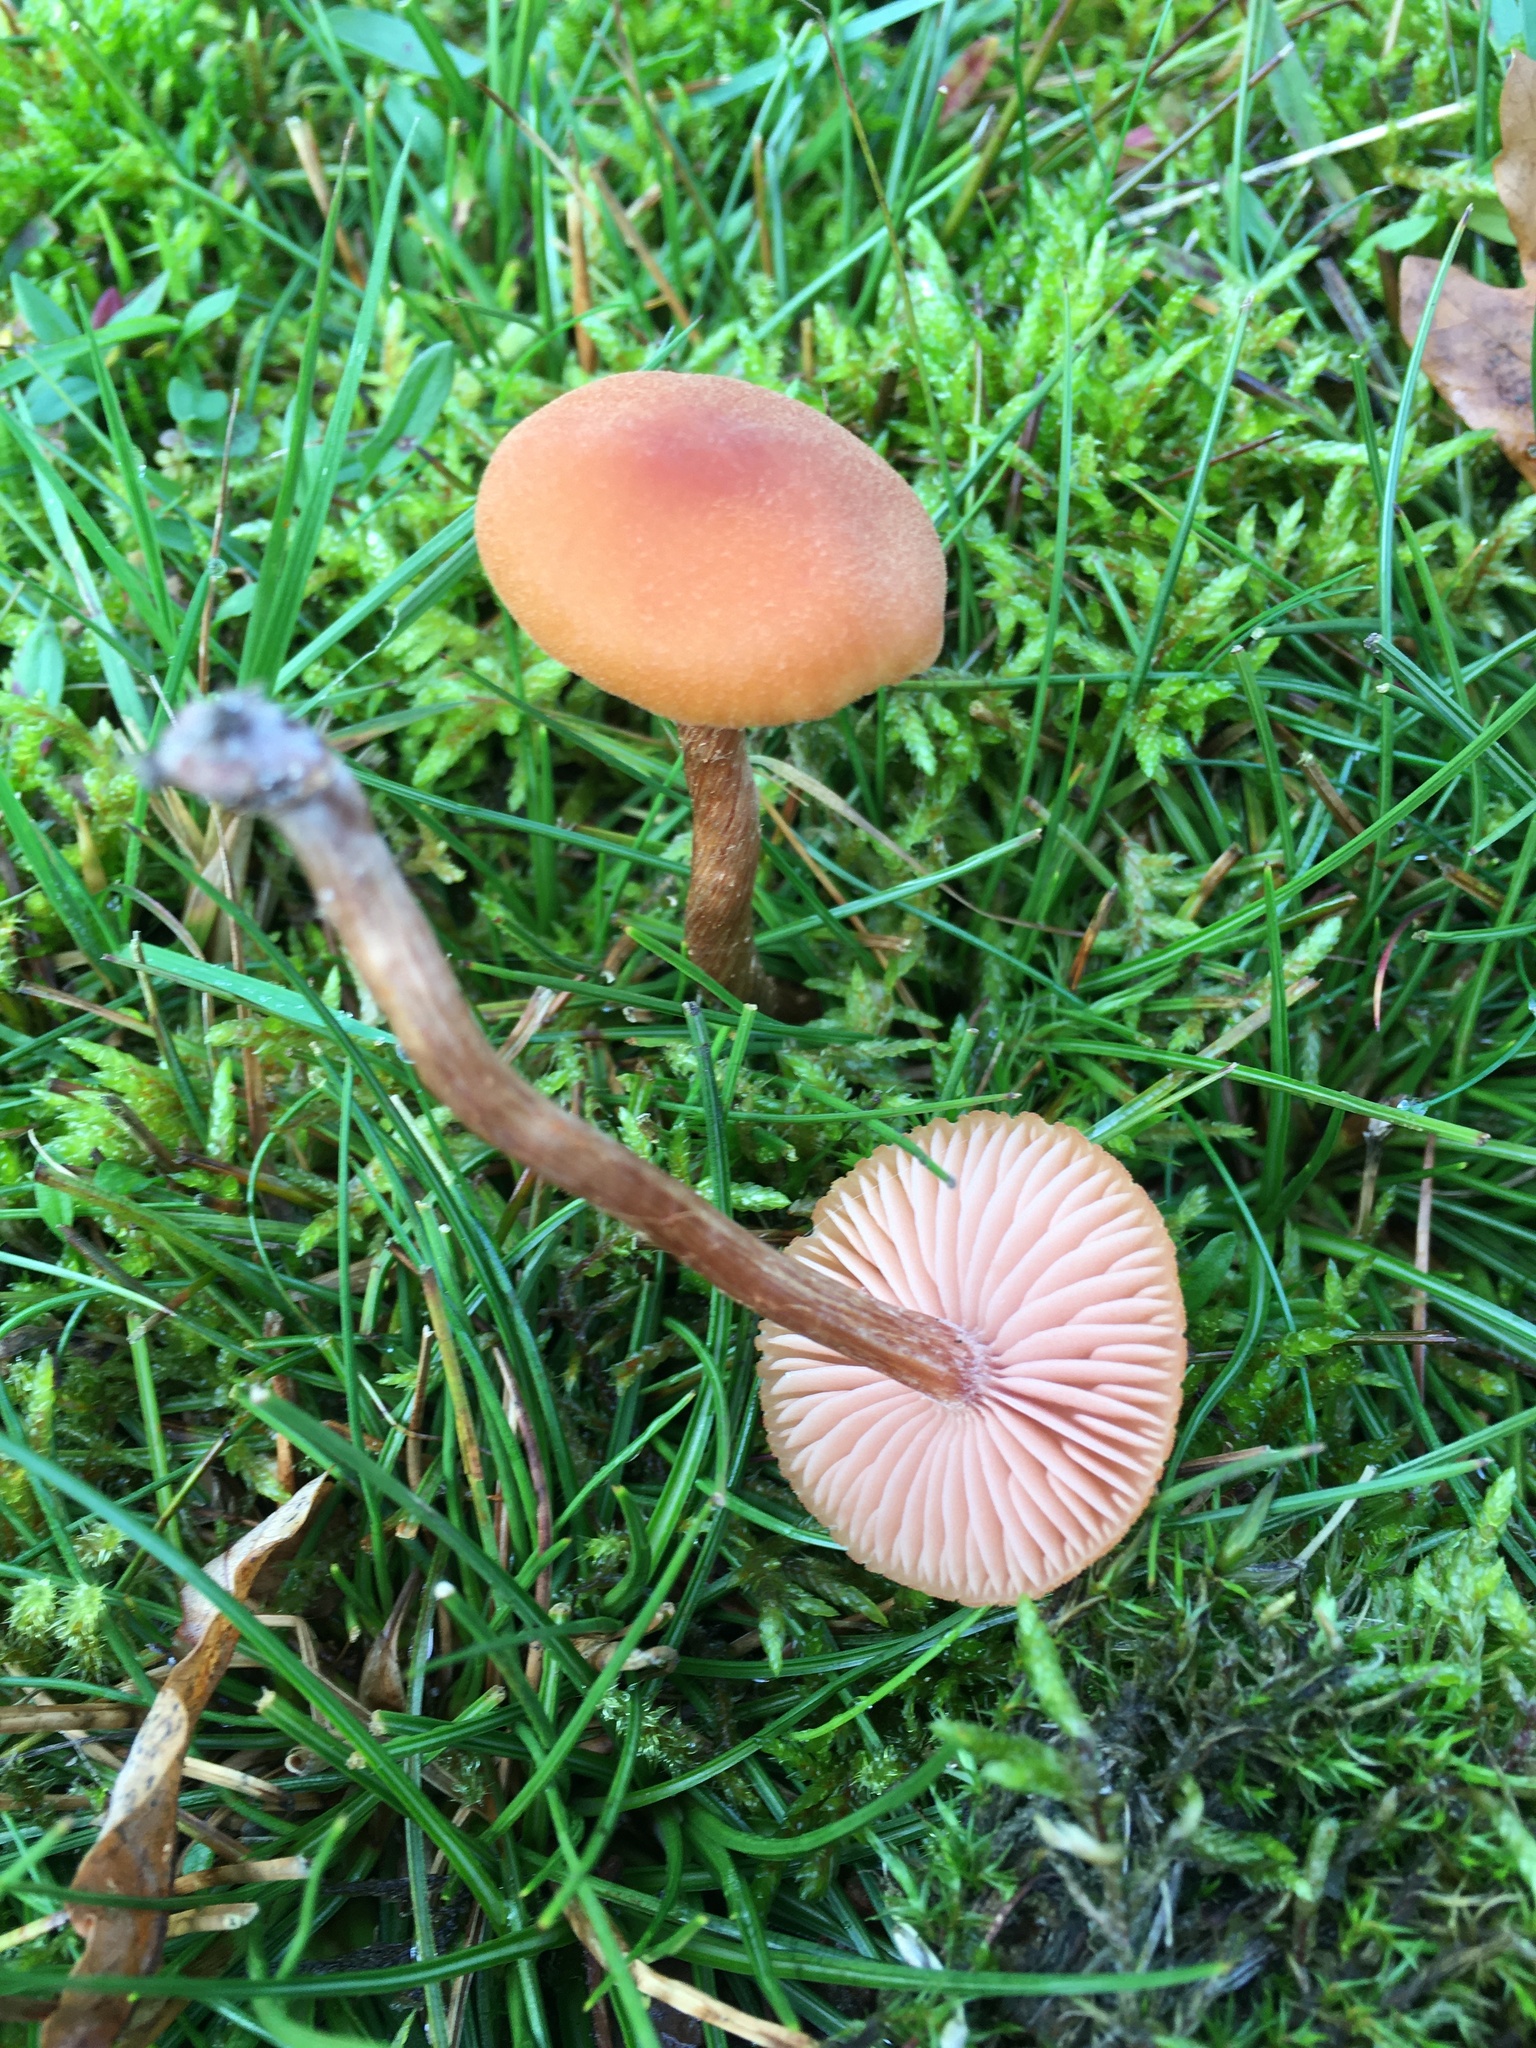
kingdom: Fungi
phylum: Basidiomycota
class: Agaricomycetes
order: Agaricales
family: Hydnangiaceae
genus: Laccaria
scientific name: Laccaria laccata
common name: Deceiver
